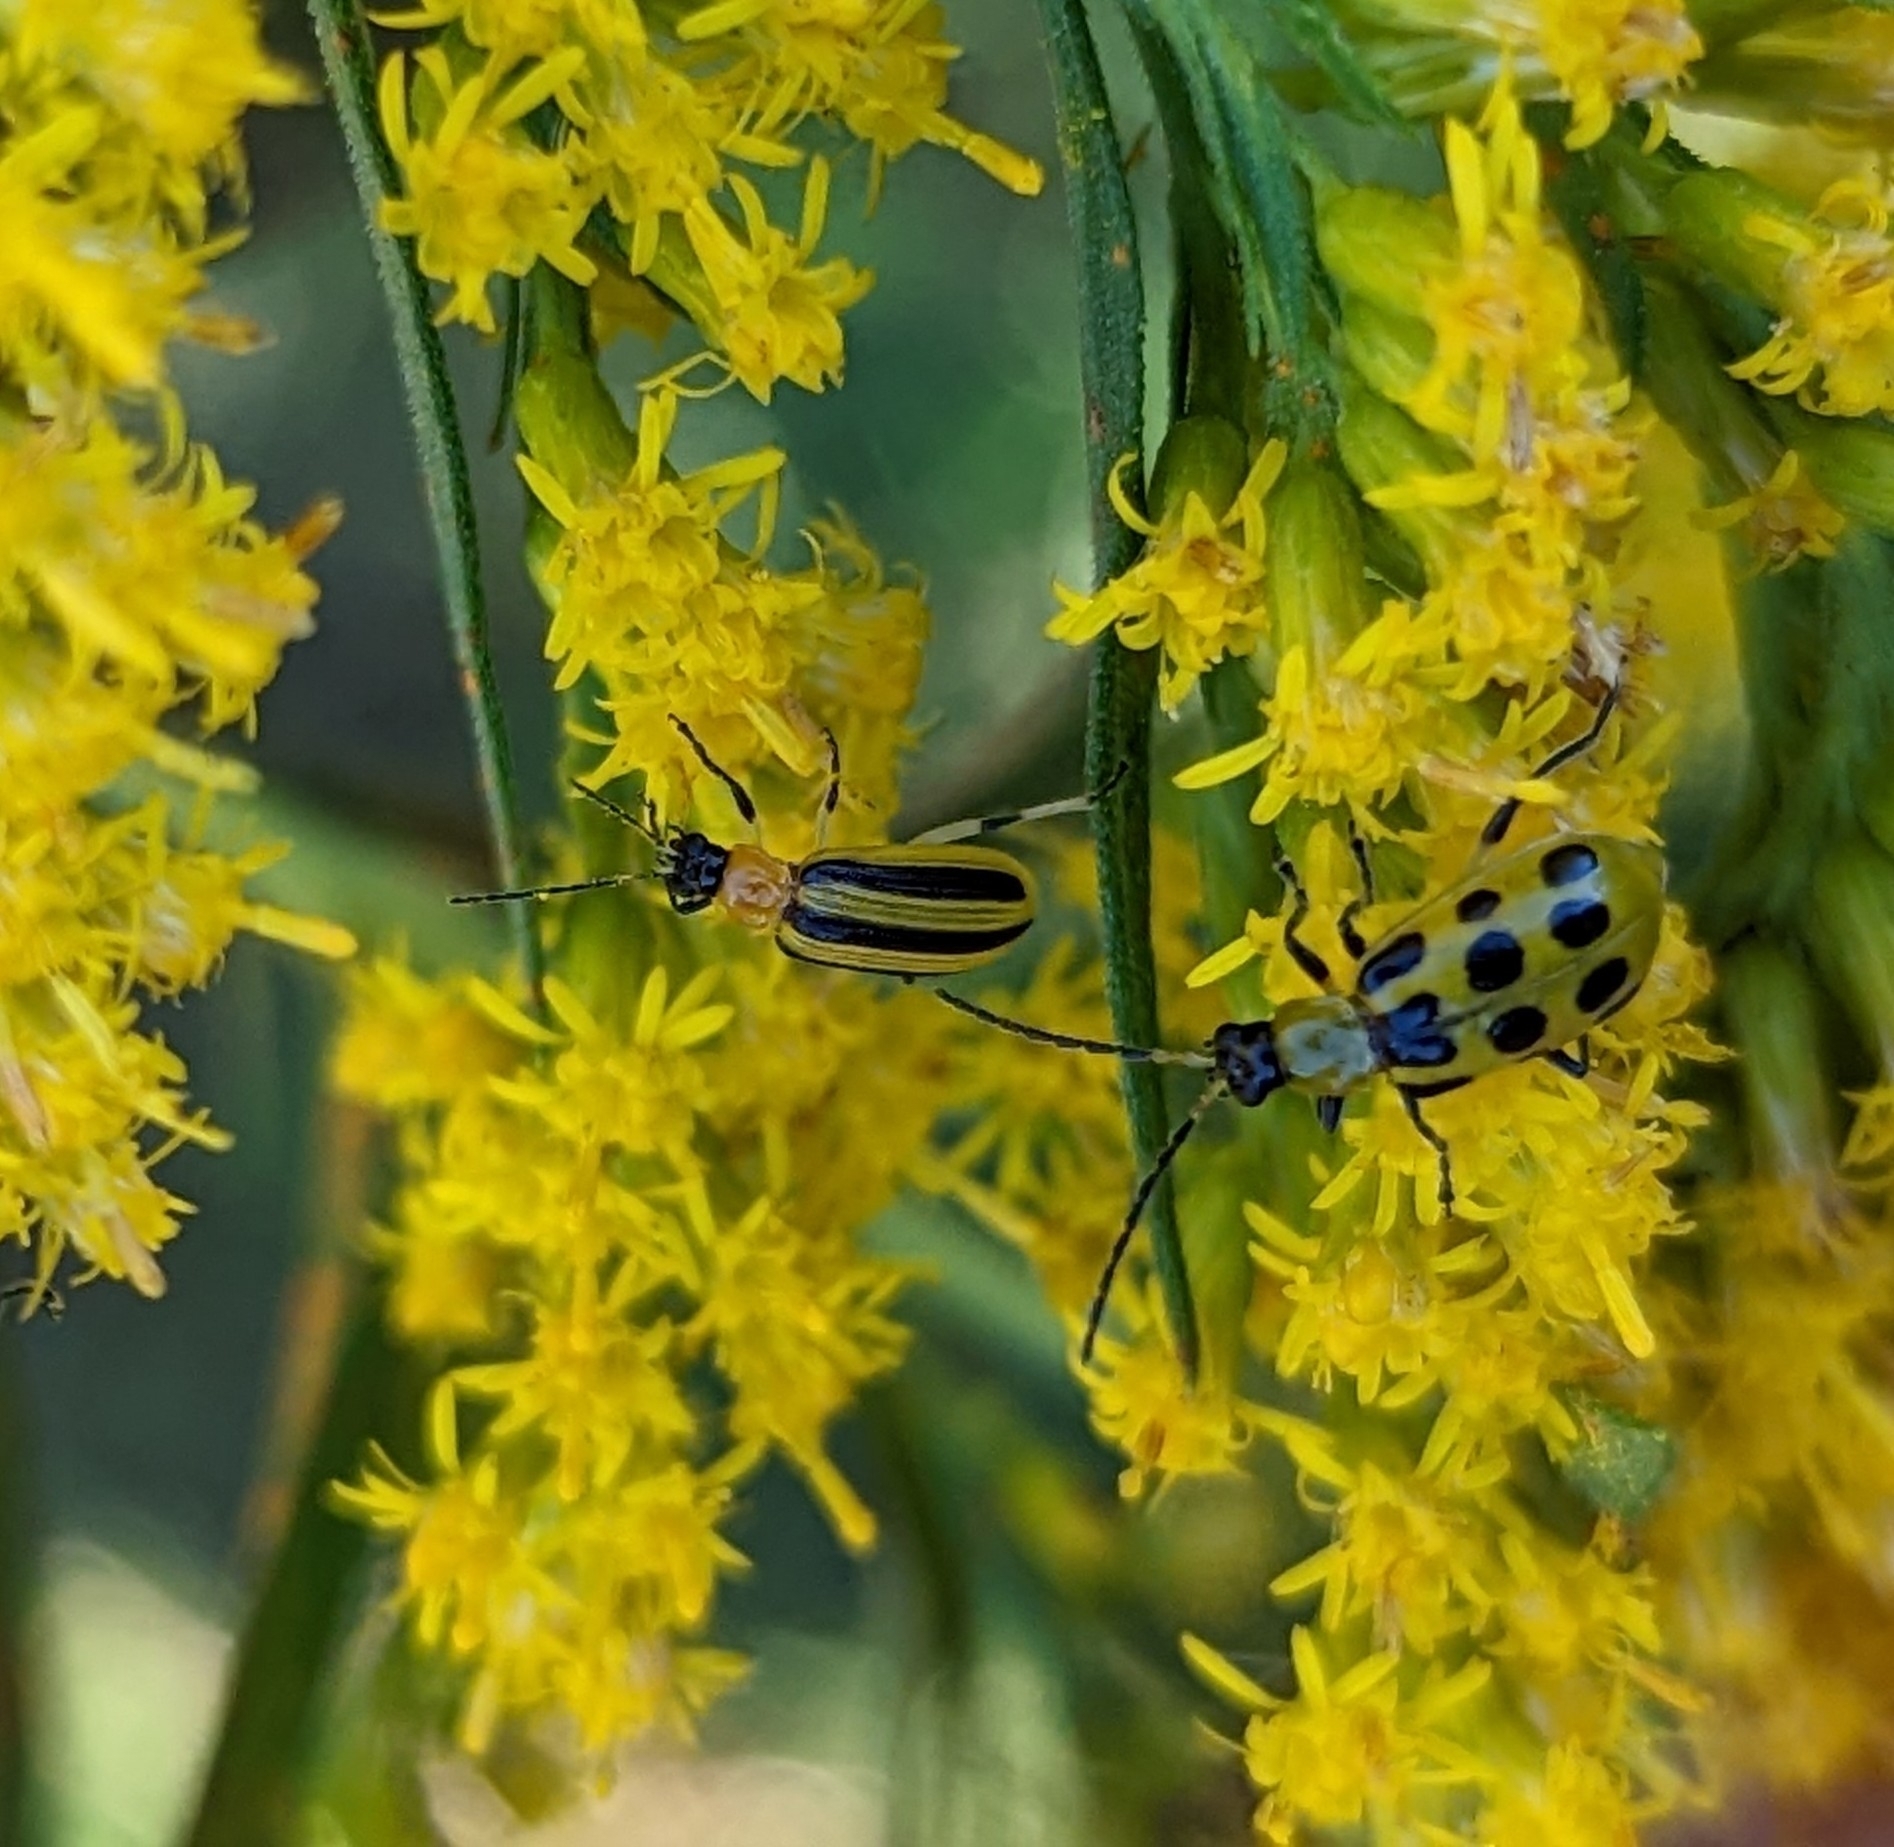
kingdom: Animalia
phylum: Arthropoda
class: Insecta
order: Coleoptera
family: Chrysomelidae
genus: Acalymma
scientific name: Acalymma vittatum
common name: Striped cucumber beetle
